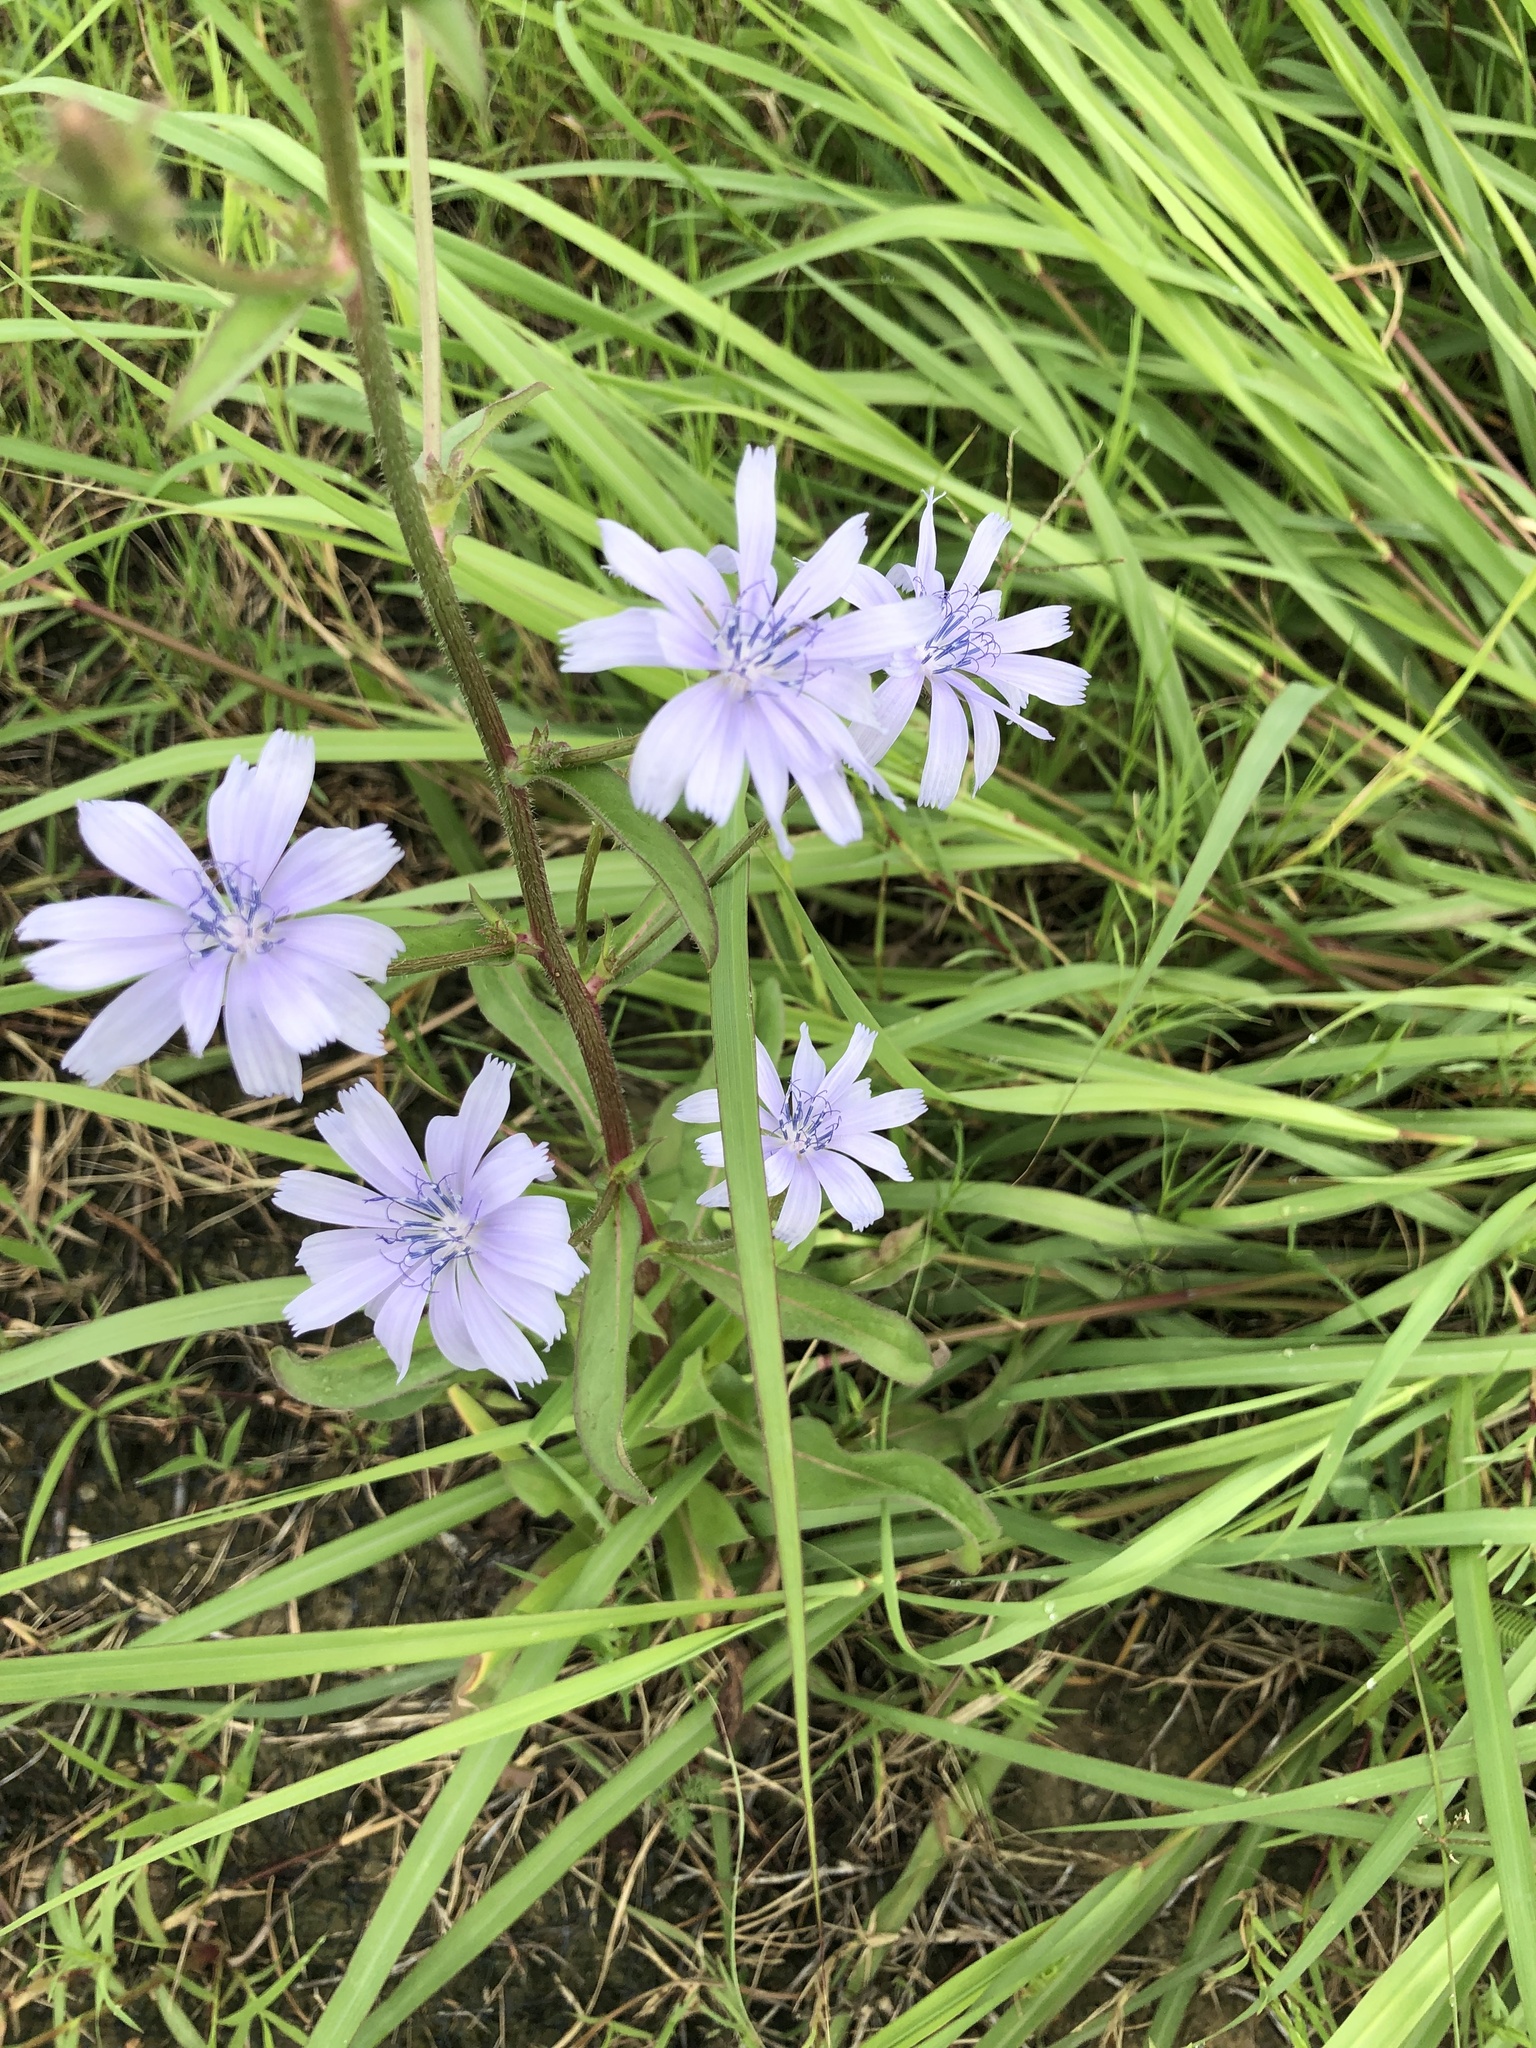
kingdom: Plantae
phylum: Tracheophyta
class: Magnoliopsida
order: Asterales
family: Asteraceae
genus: Cichorium
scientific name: Cichorium intybus
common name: Chicory
